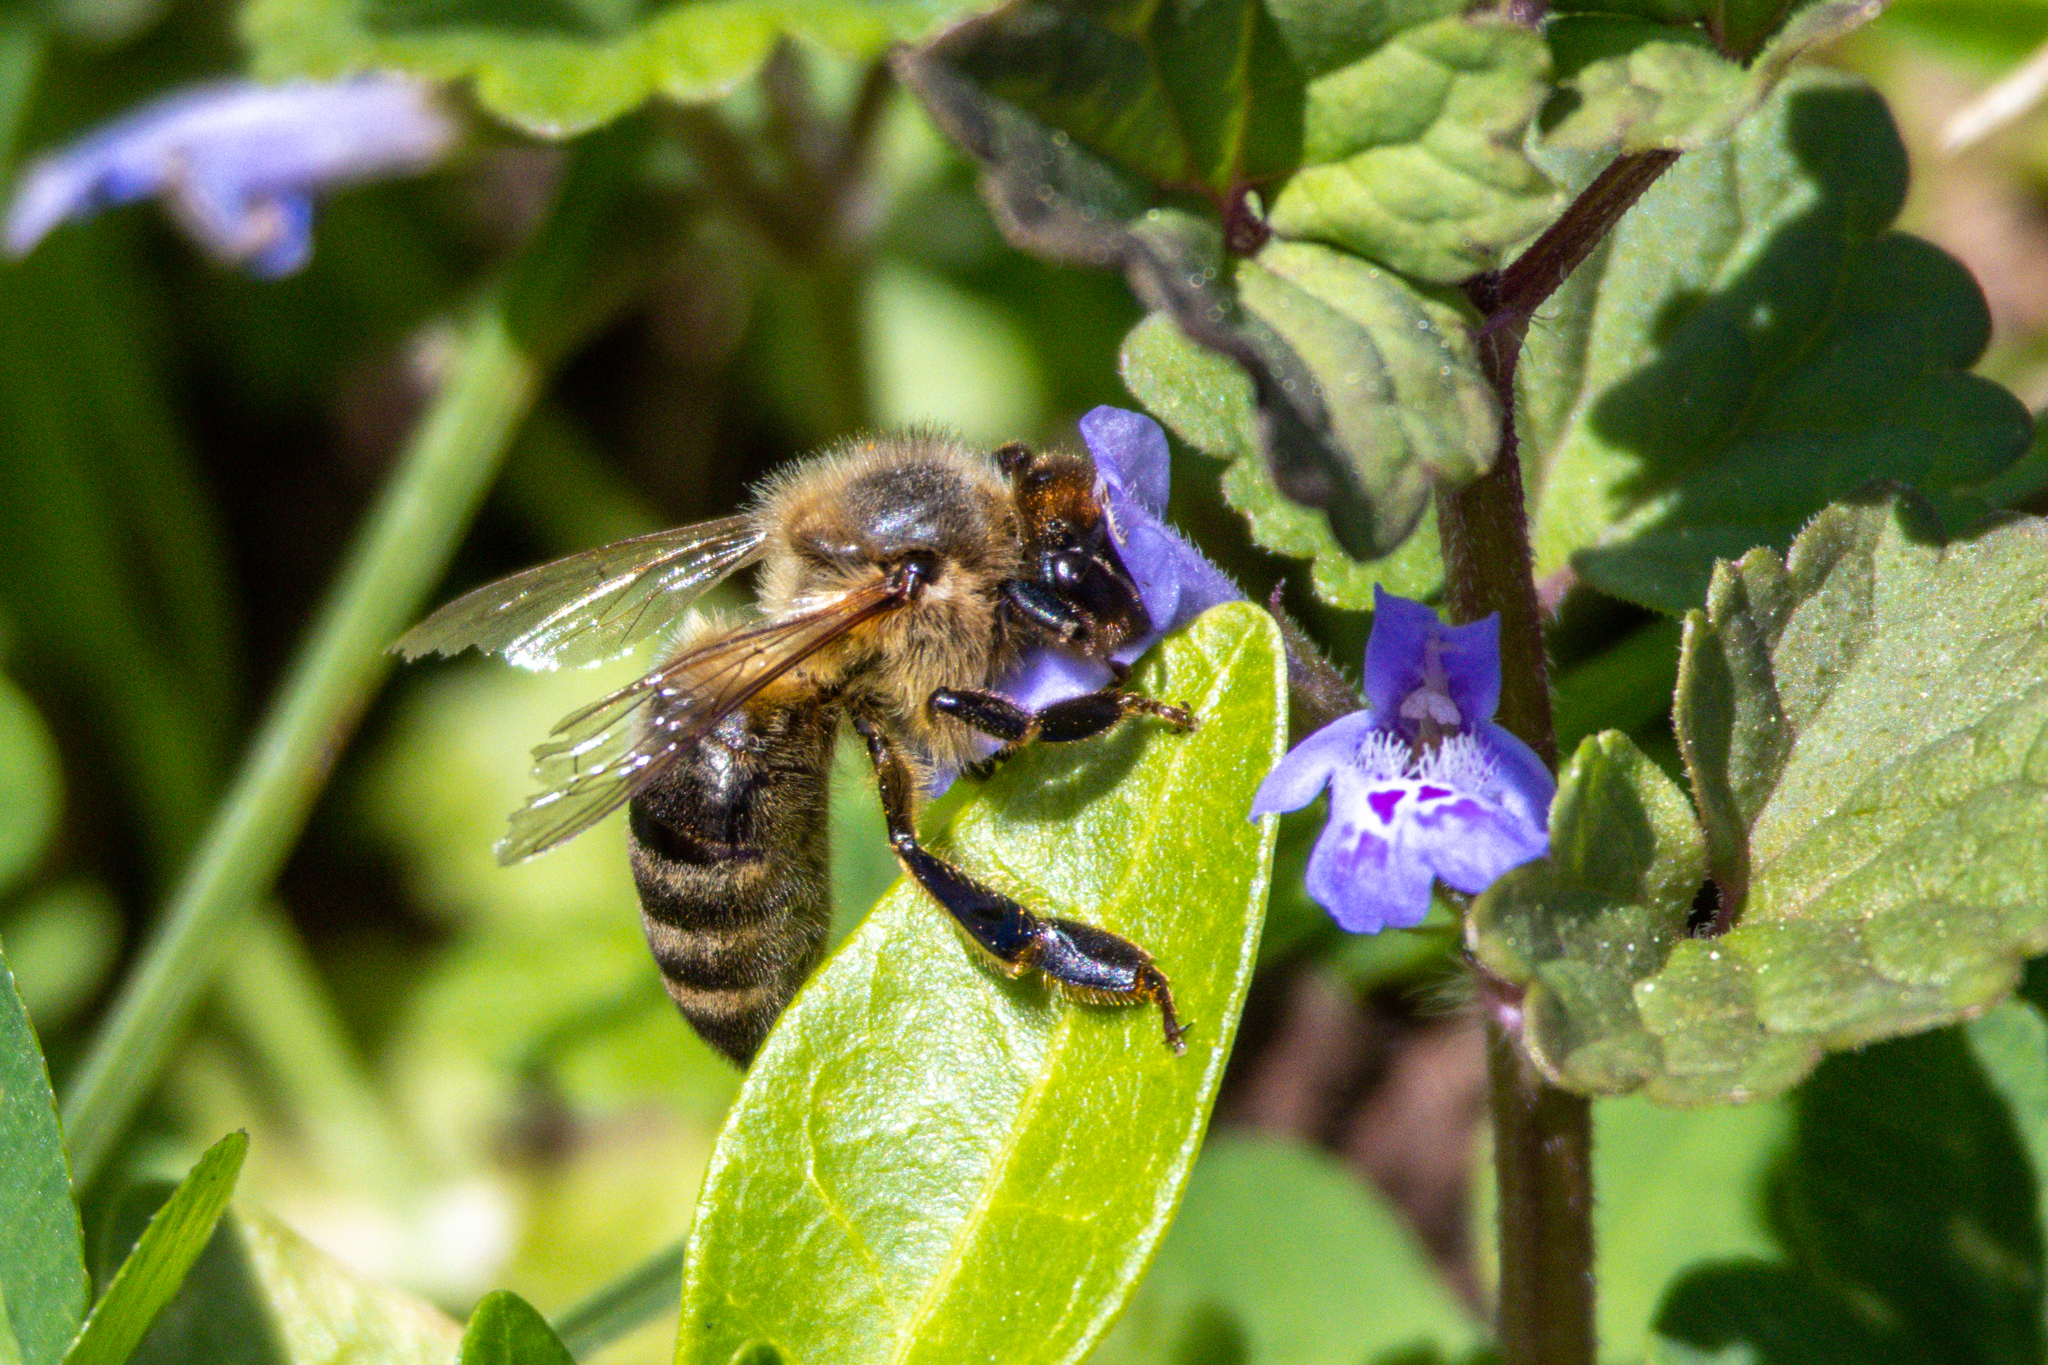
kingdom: Animalia
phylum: Arthropoda
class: Insecta
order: Hymenoptera
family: Apidae
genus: Apis
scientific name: Apis mellifera
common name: Honey bee
